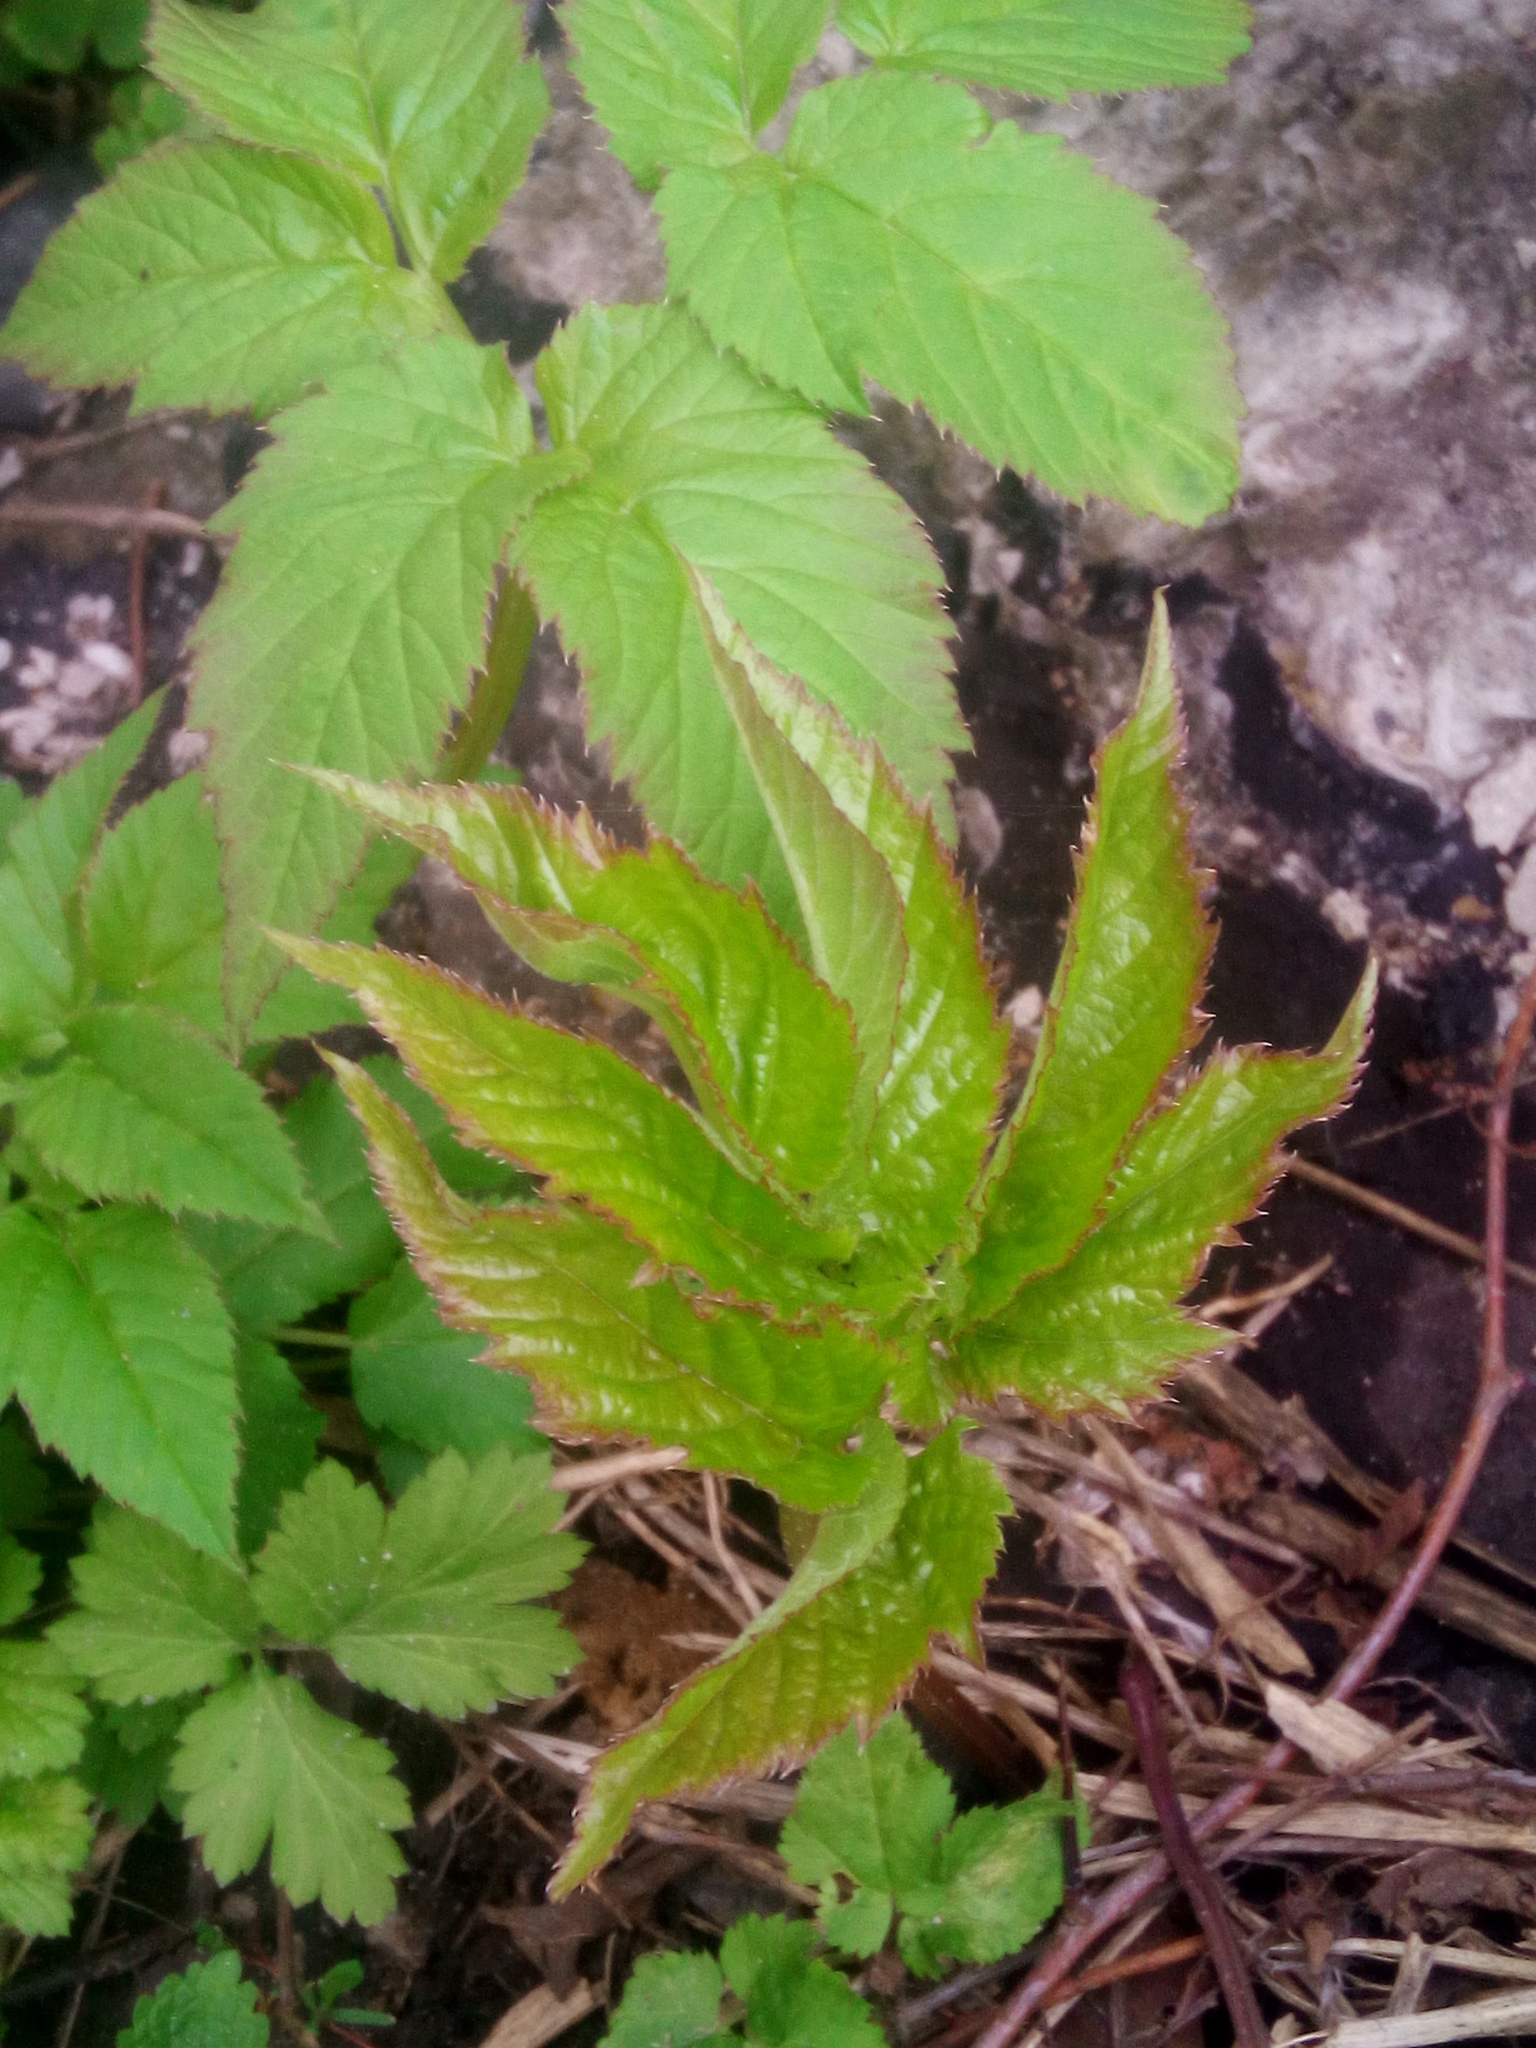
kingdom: Plantae
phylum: Tracheophyta
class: Magnoliopsida
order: Apiales
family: Apiaceae
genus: Aegopodium
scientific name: Aegopodium podagraria
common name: Ground-elder
